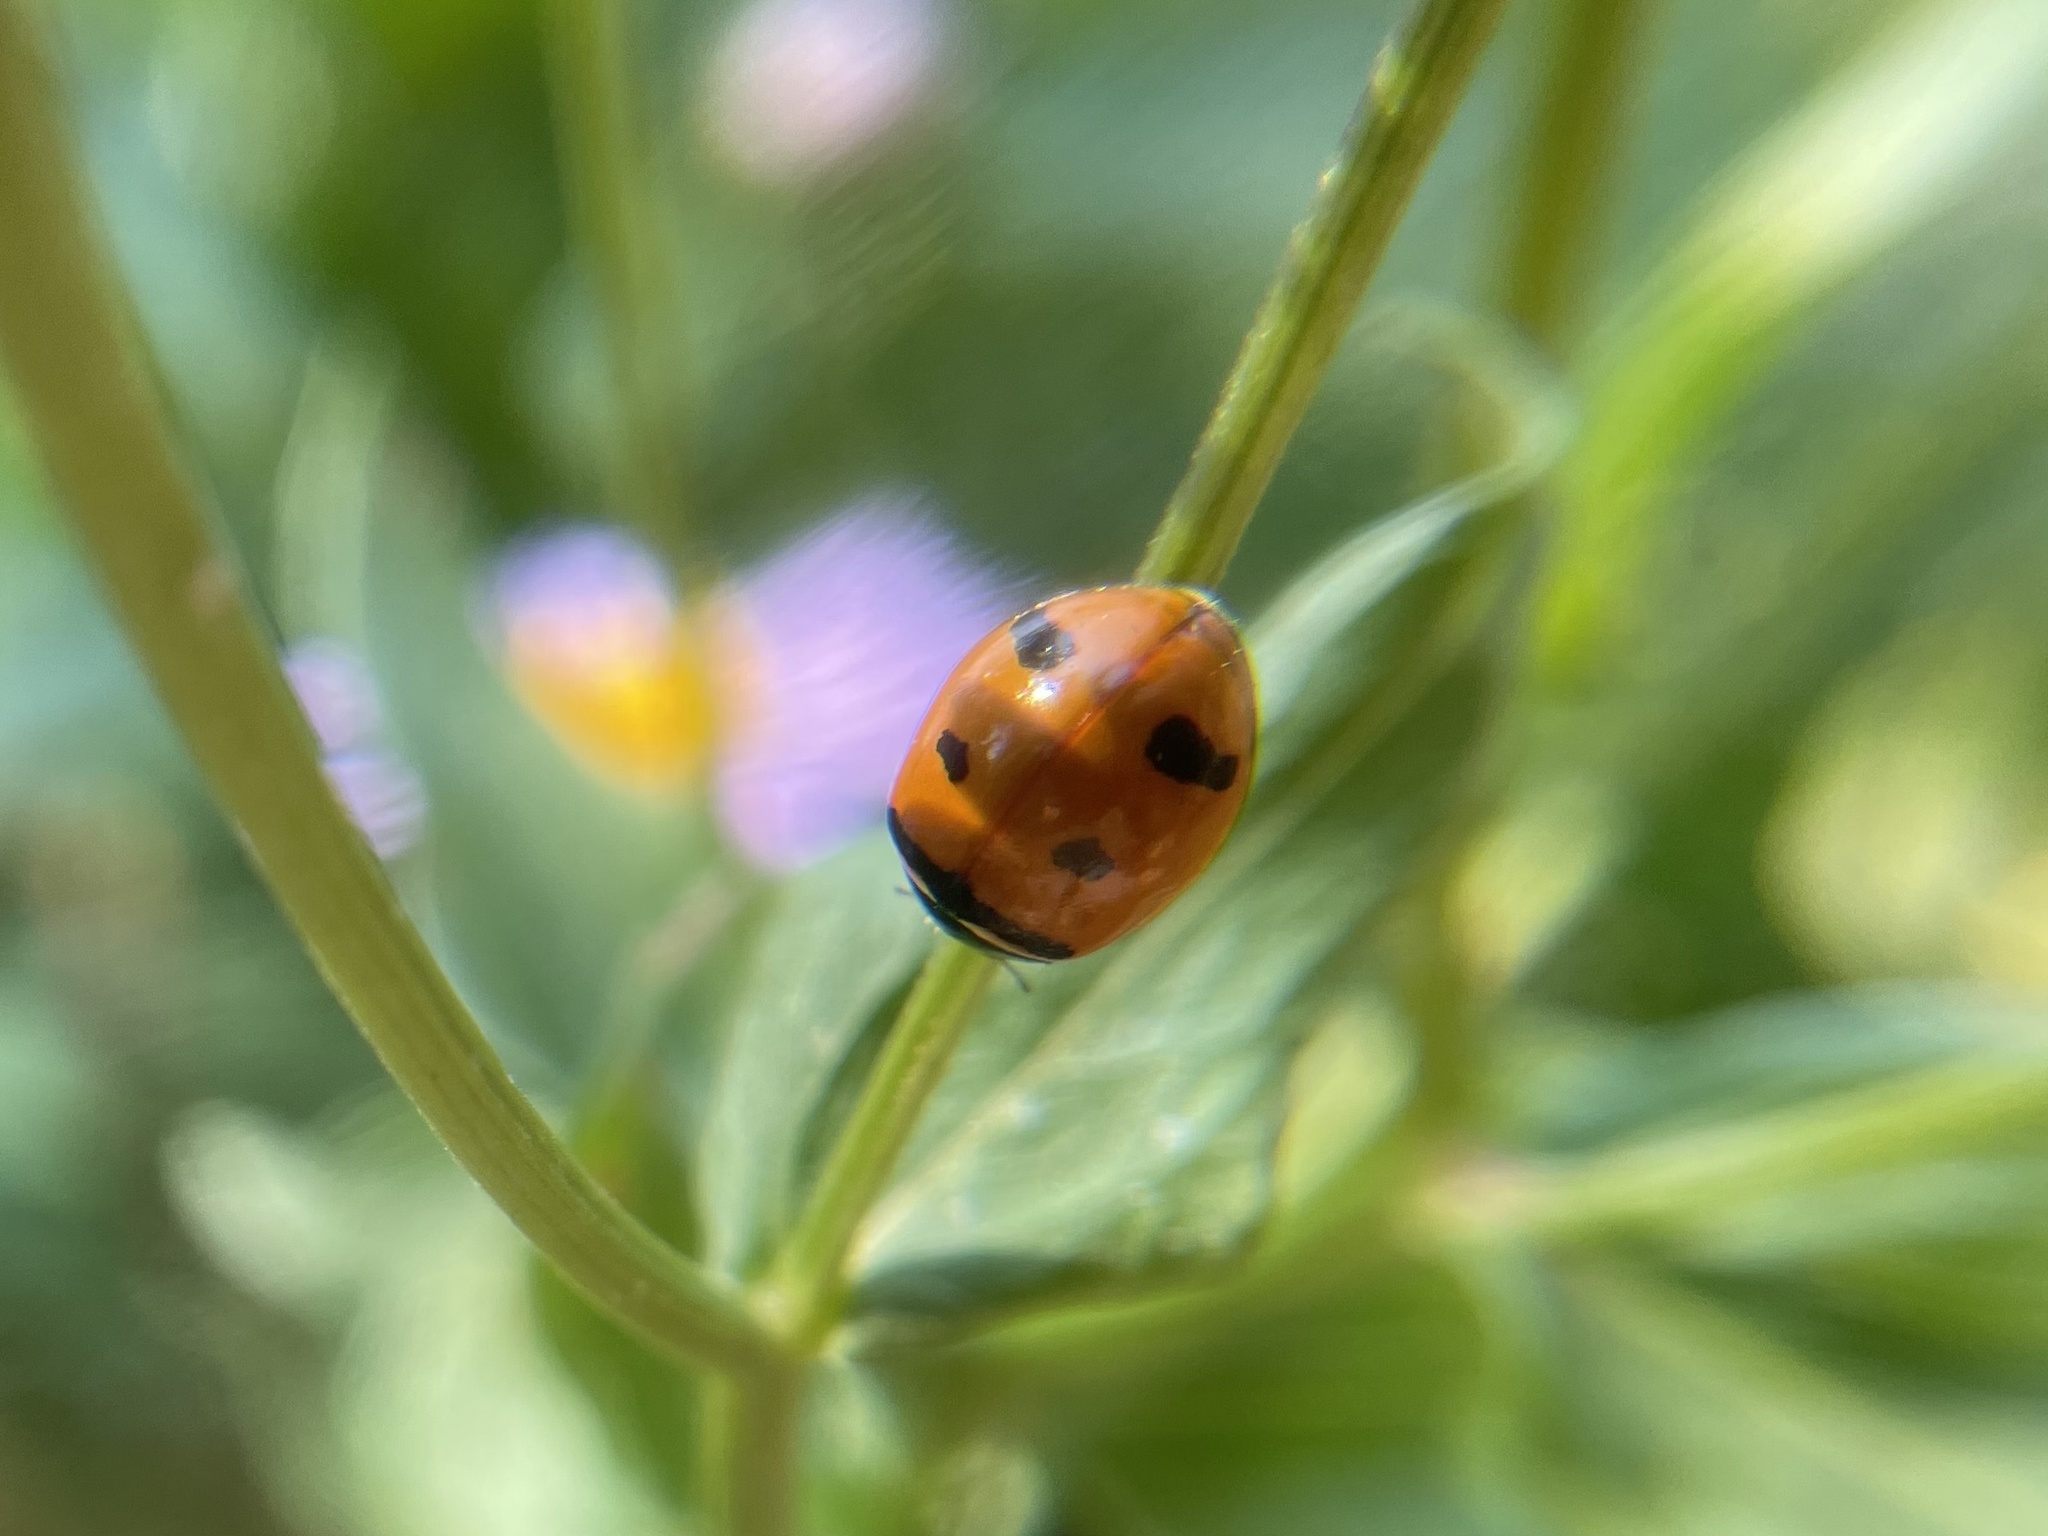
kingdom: Animalia
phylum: Arthropoda
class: Insecta
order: Coleoptera
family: Coccinellidae
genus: Coccinella
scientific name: Coccinella transversoguttata
